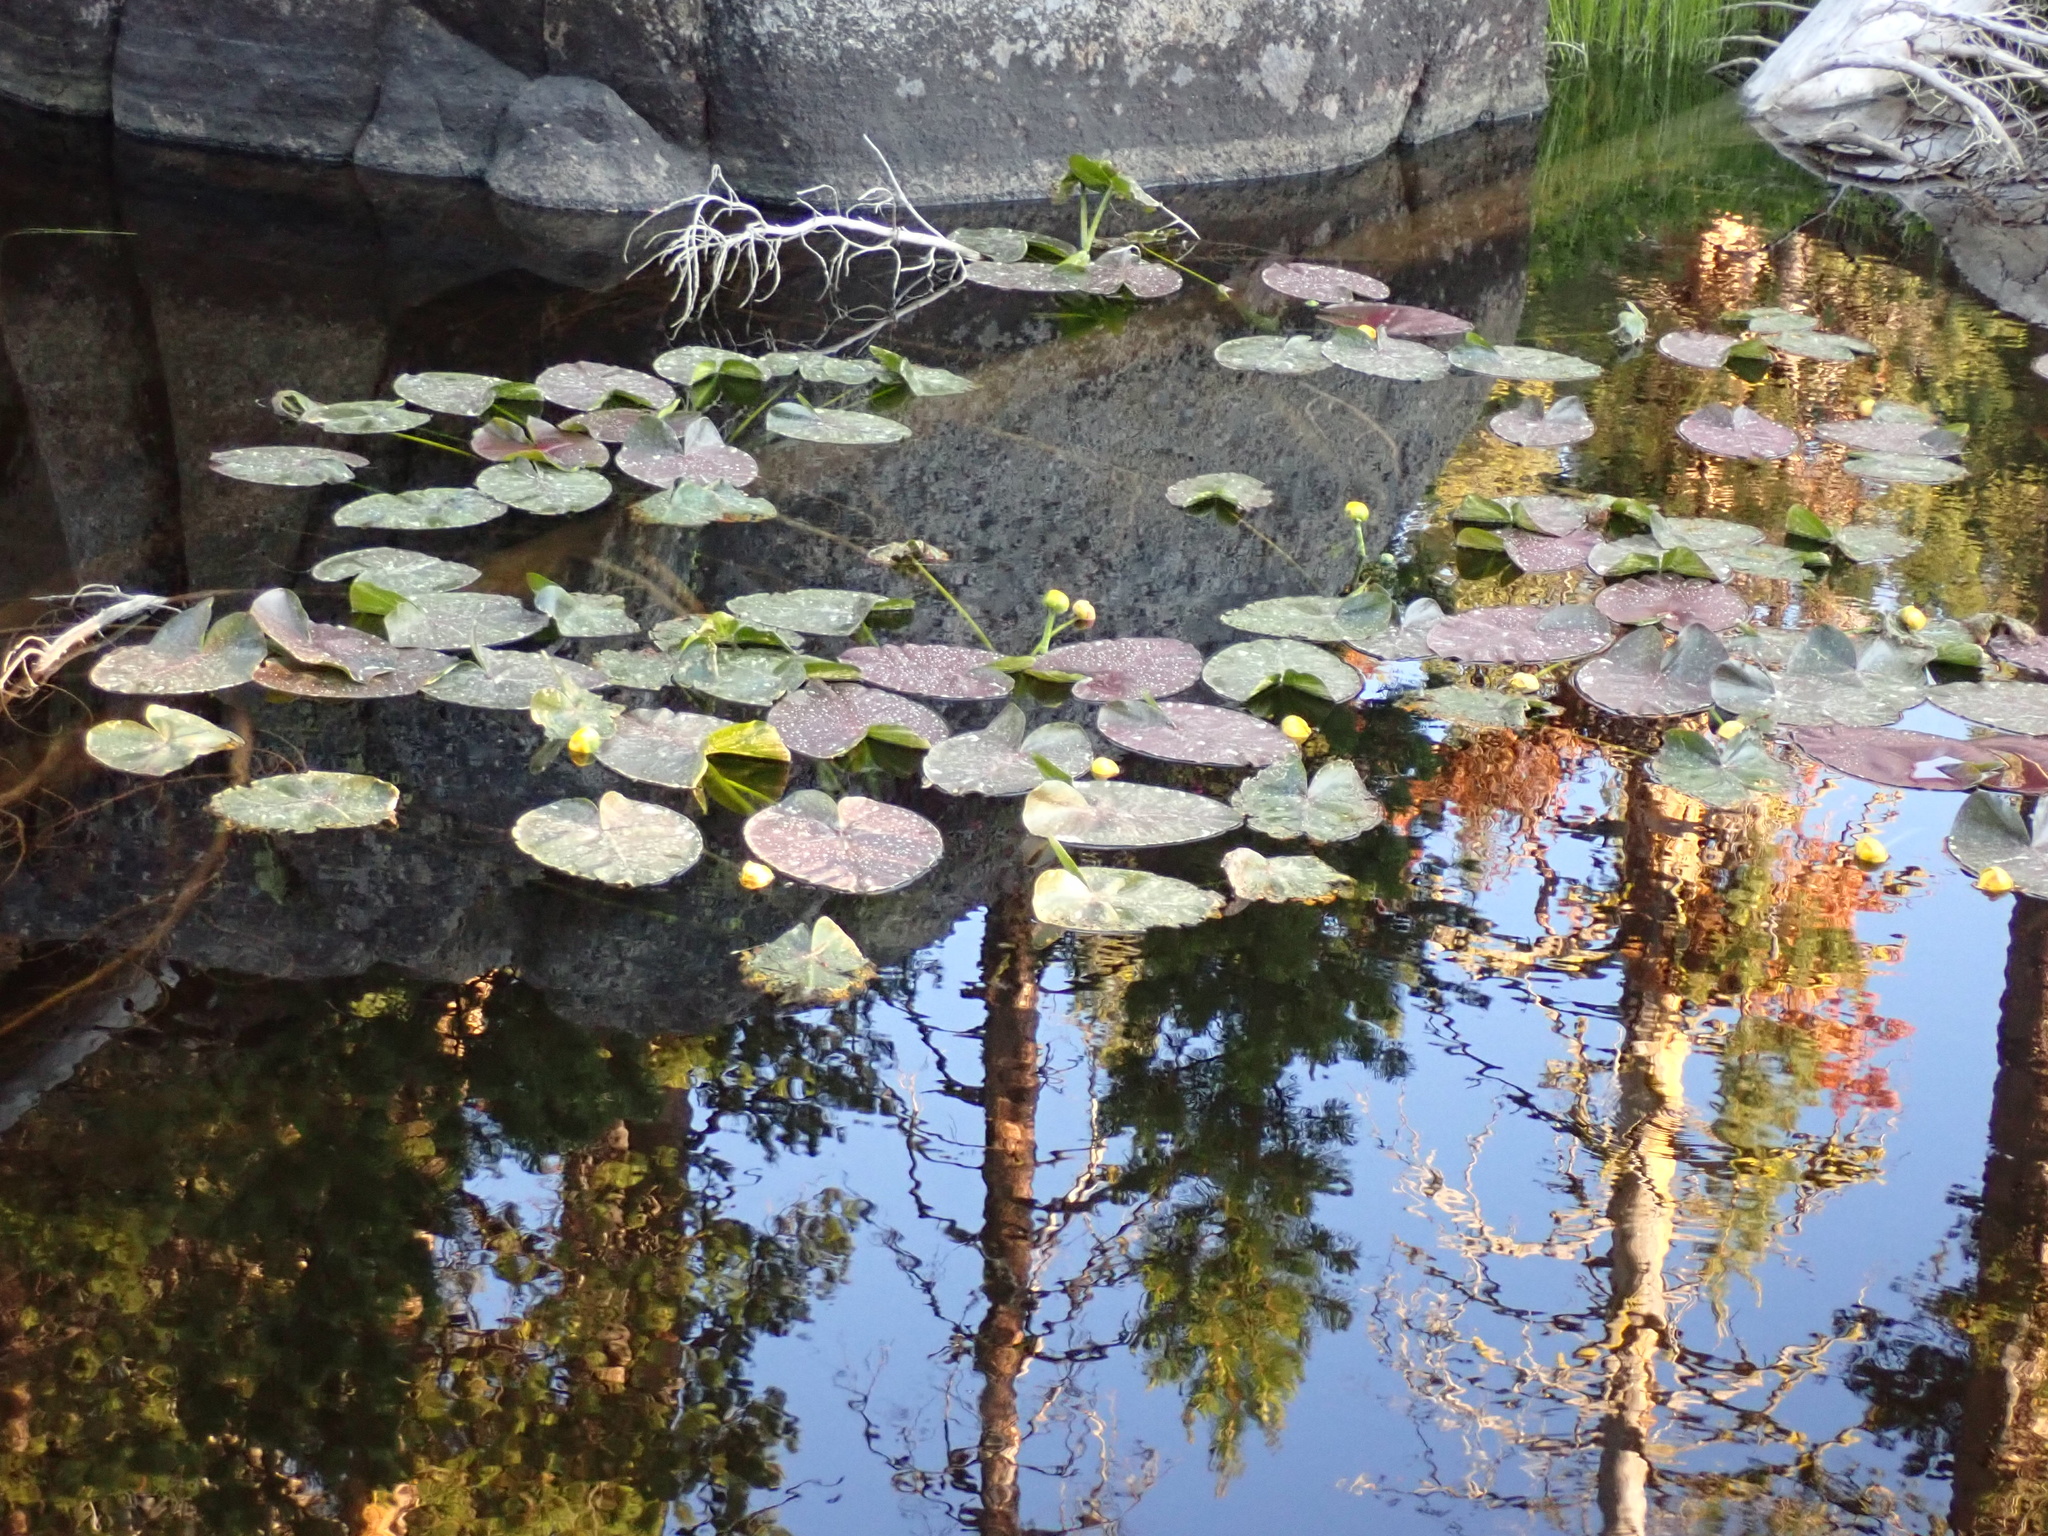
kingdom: Plantae
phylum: Tracheophyta
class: Magnoliopsida
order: Nymphaeales
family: Nymphaeaceae
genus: Nuphar
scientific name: Nuphar polysepala
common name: Rocky mountain cow-lily
